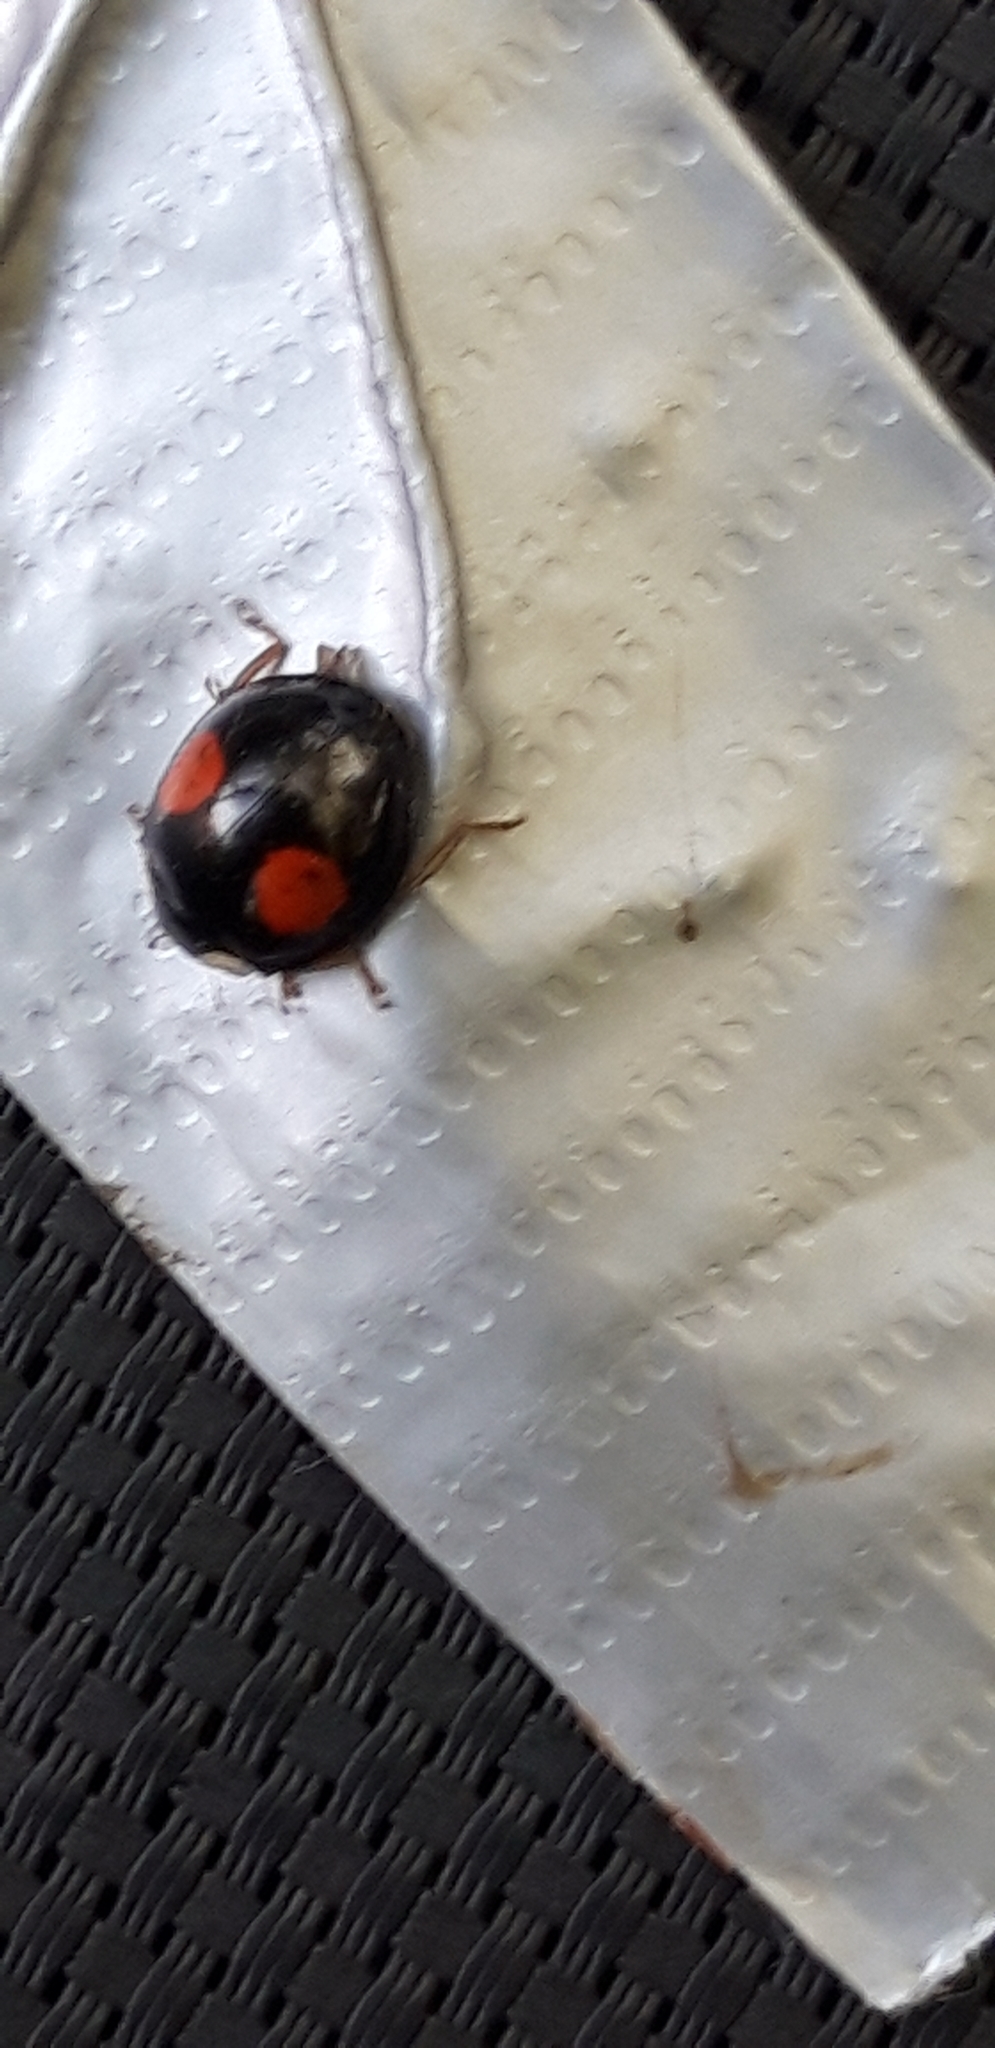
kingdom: Animalia
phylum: Arthropoda
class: Insecta
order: Coleoptera
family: Coccinellidae
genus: Harmonia
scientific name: Harmonia axyridis
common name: Harlequin ladybird
